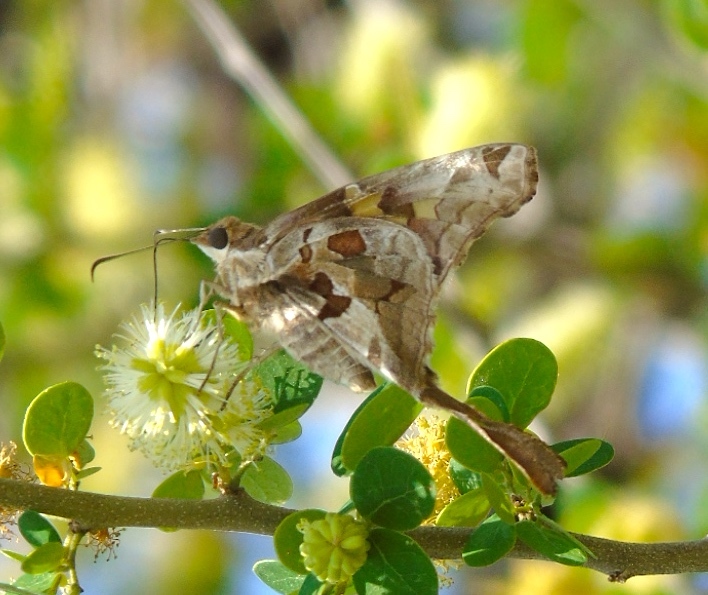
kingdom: Animalia
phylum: Arthropoda
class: Insecta
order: Lepidoptera
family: Hesperiidae
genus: Chioides
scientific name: Chioides zilpa
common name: Zilpa longtail
